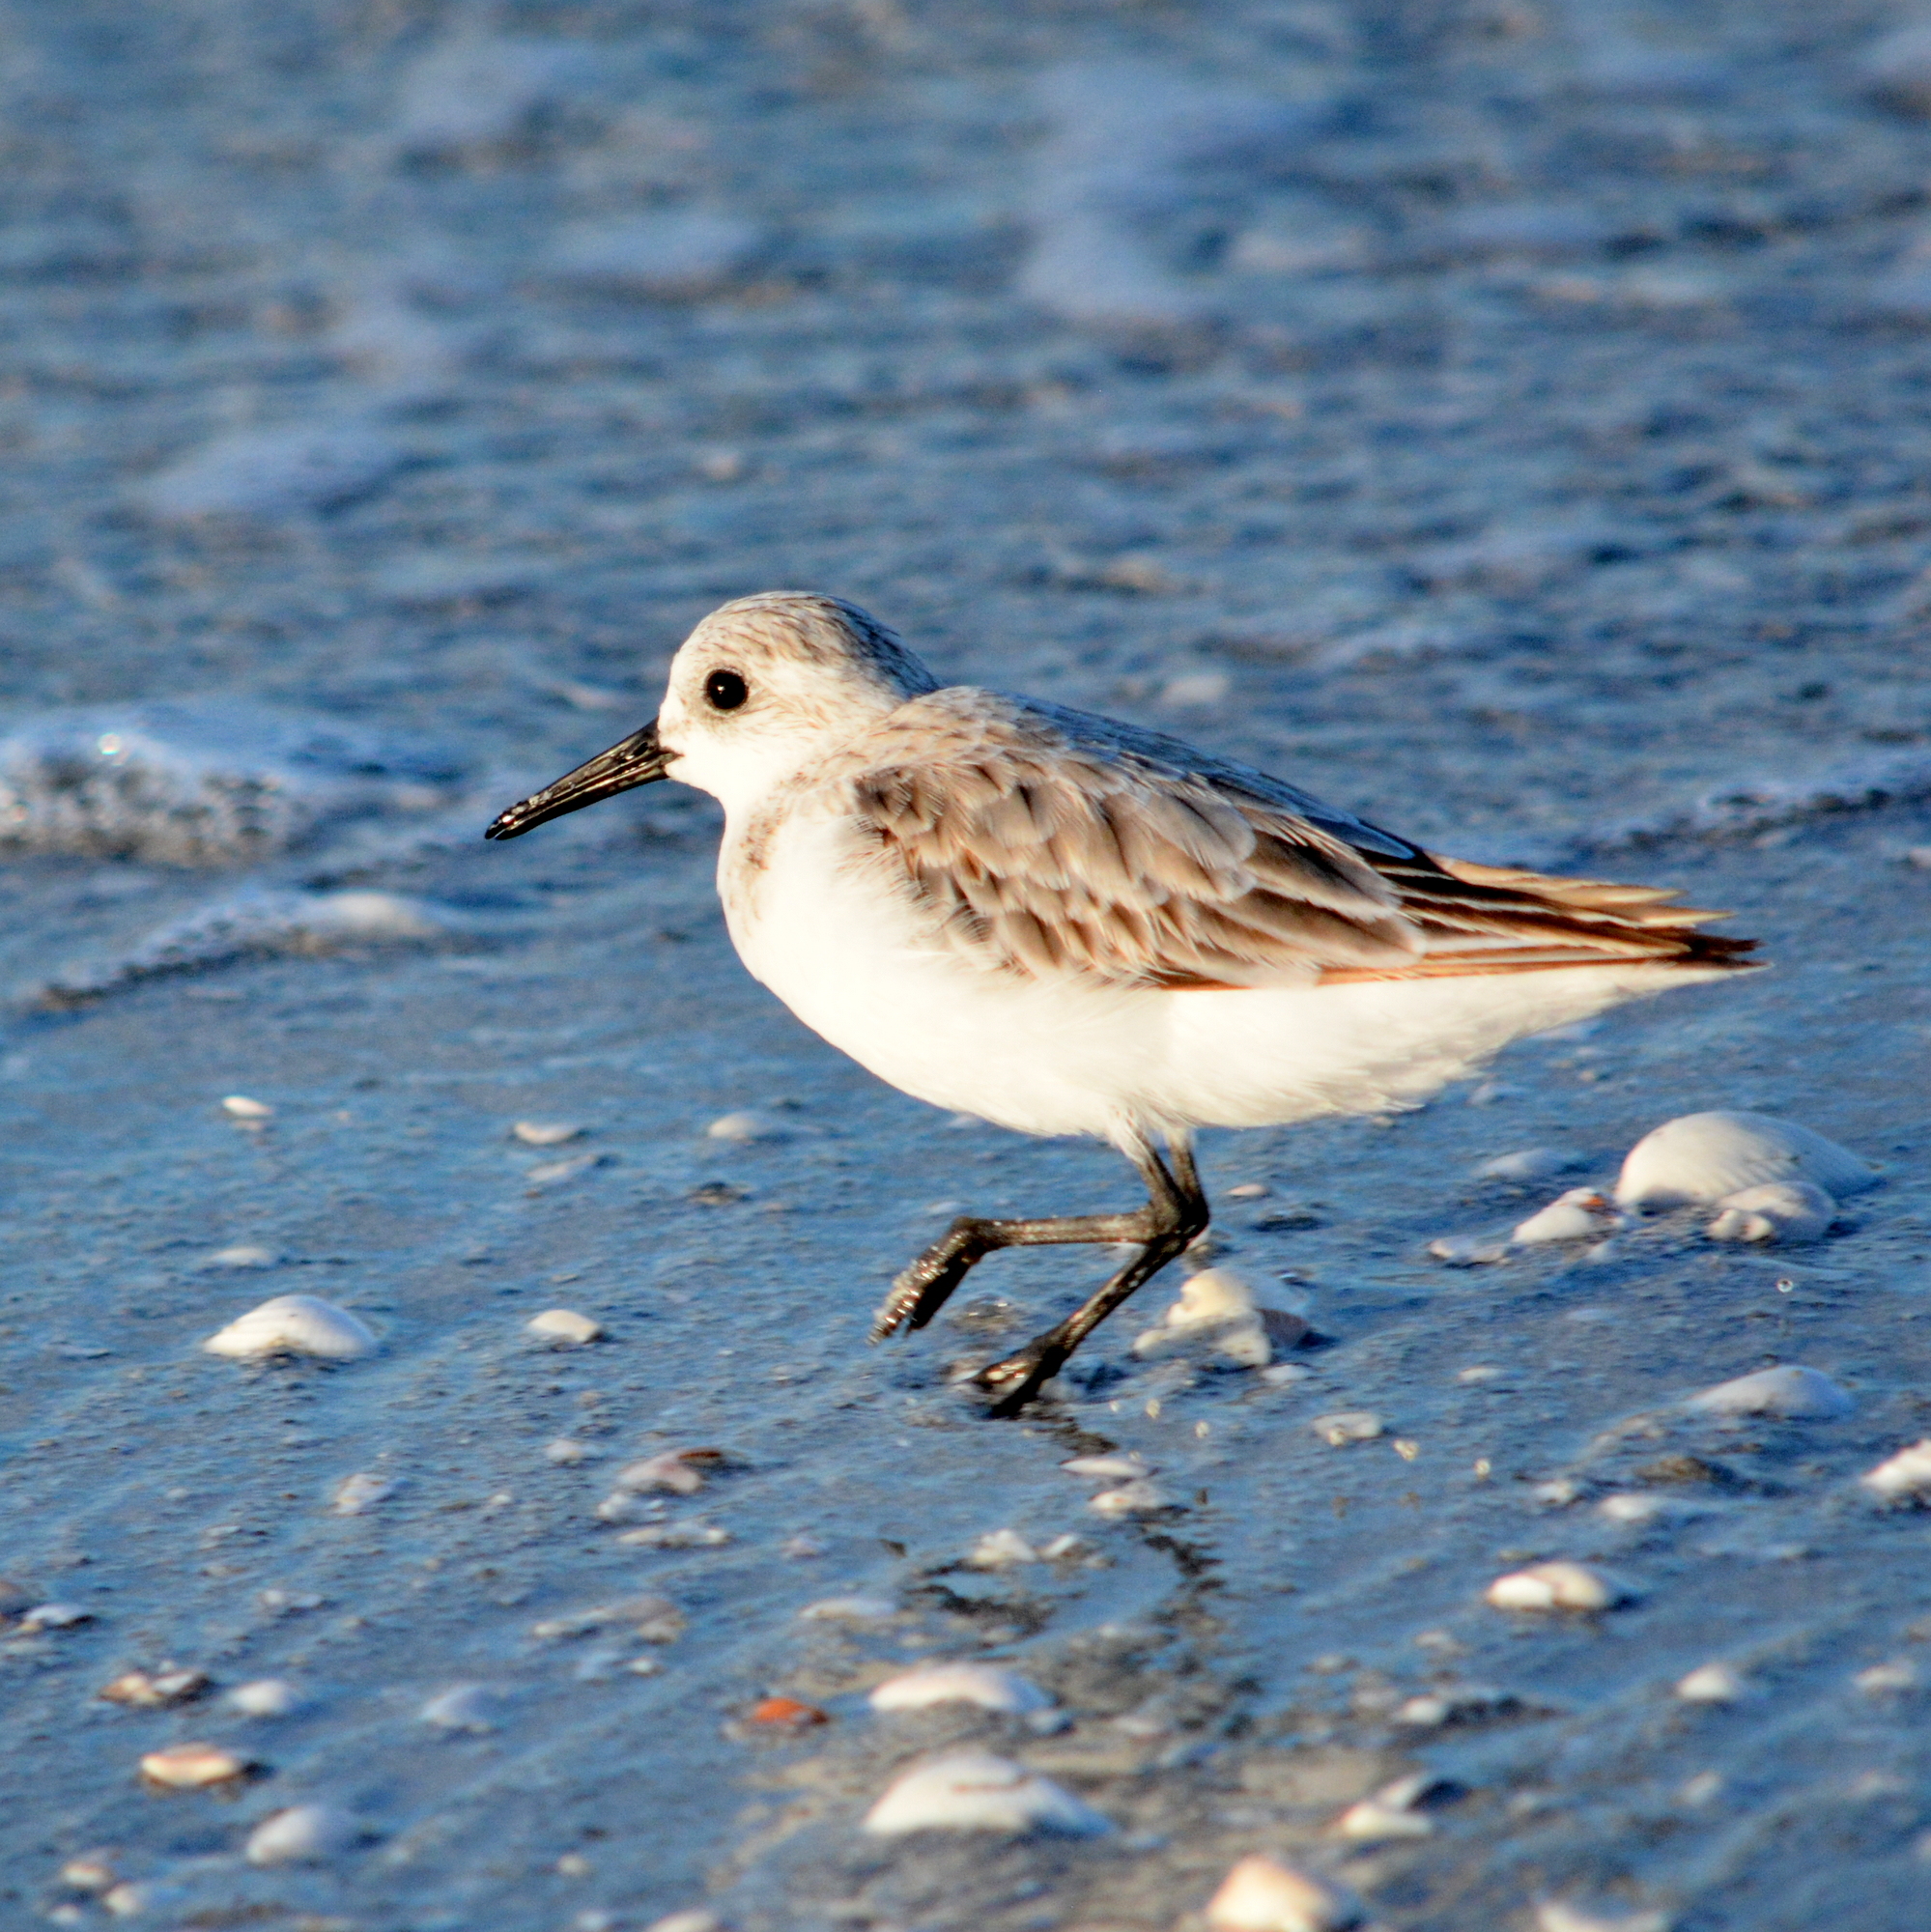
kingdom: Animalia
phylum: Chordata
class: Aves
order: Charadriiformes
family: Scolopacidae
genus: Calidris
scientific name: Calidris alba
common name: Sanderling
